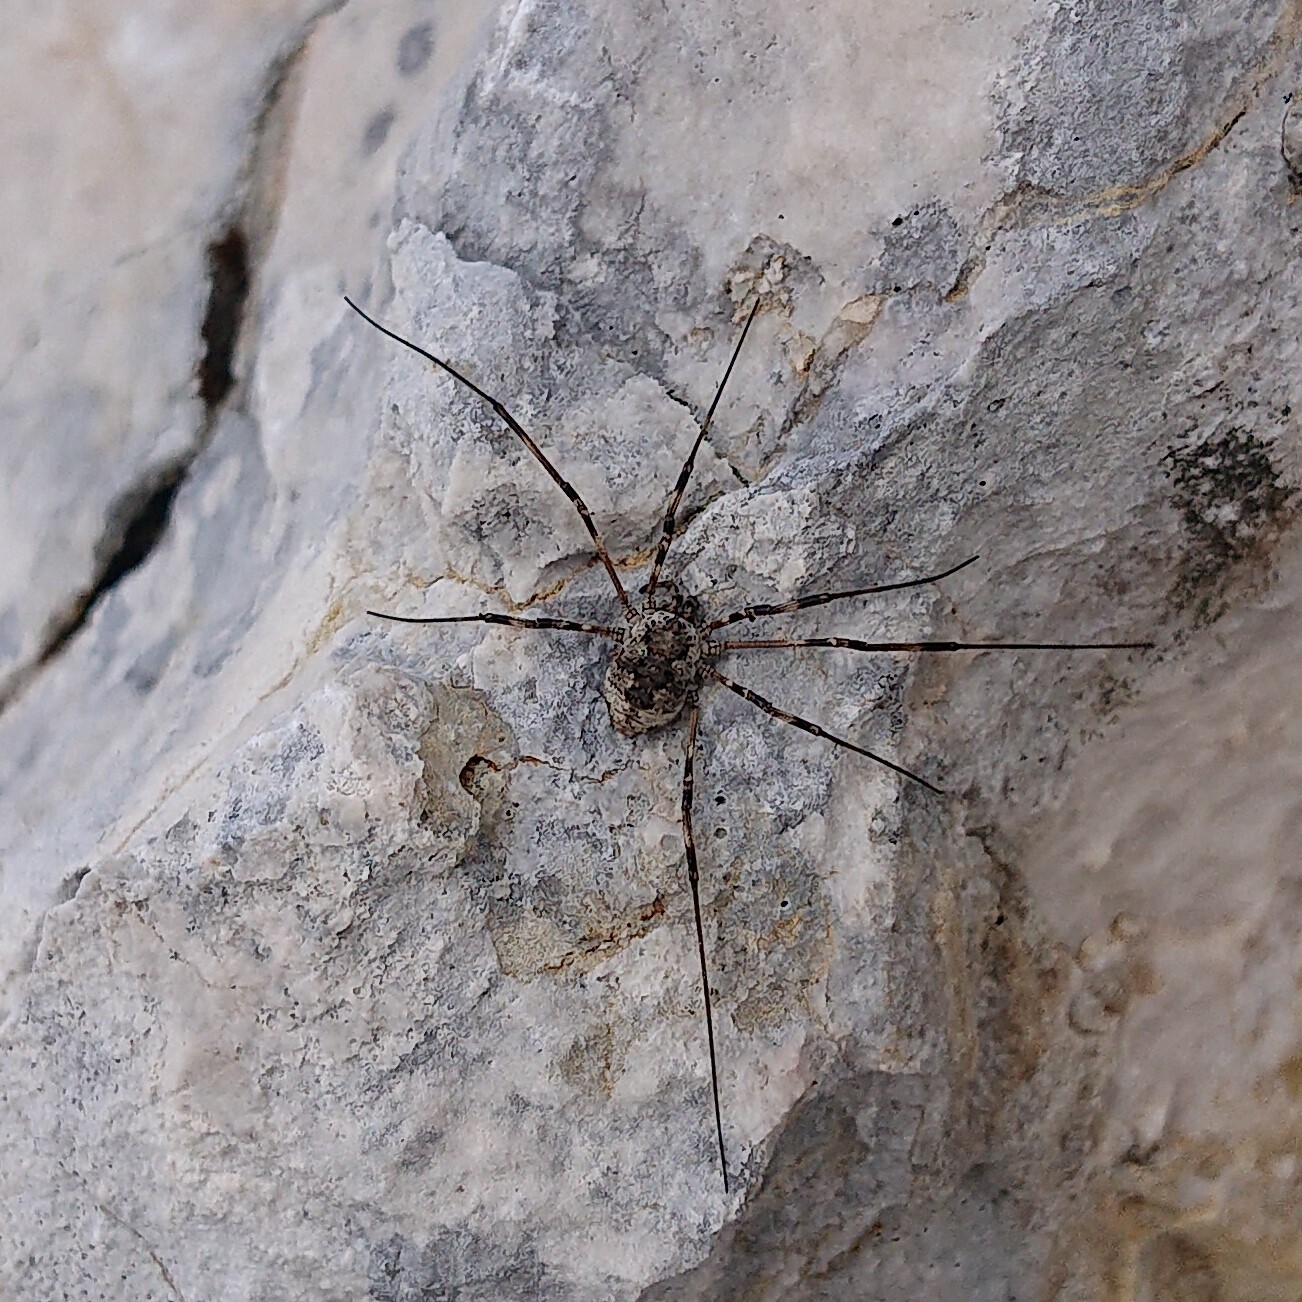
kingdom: Animalia
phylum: Arthropoda
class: Arachnida
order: Opiliones
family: Phalangiidae
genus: Mitopus
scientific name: Mitopus glacialis
